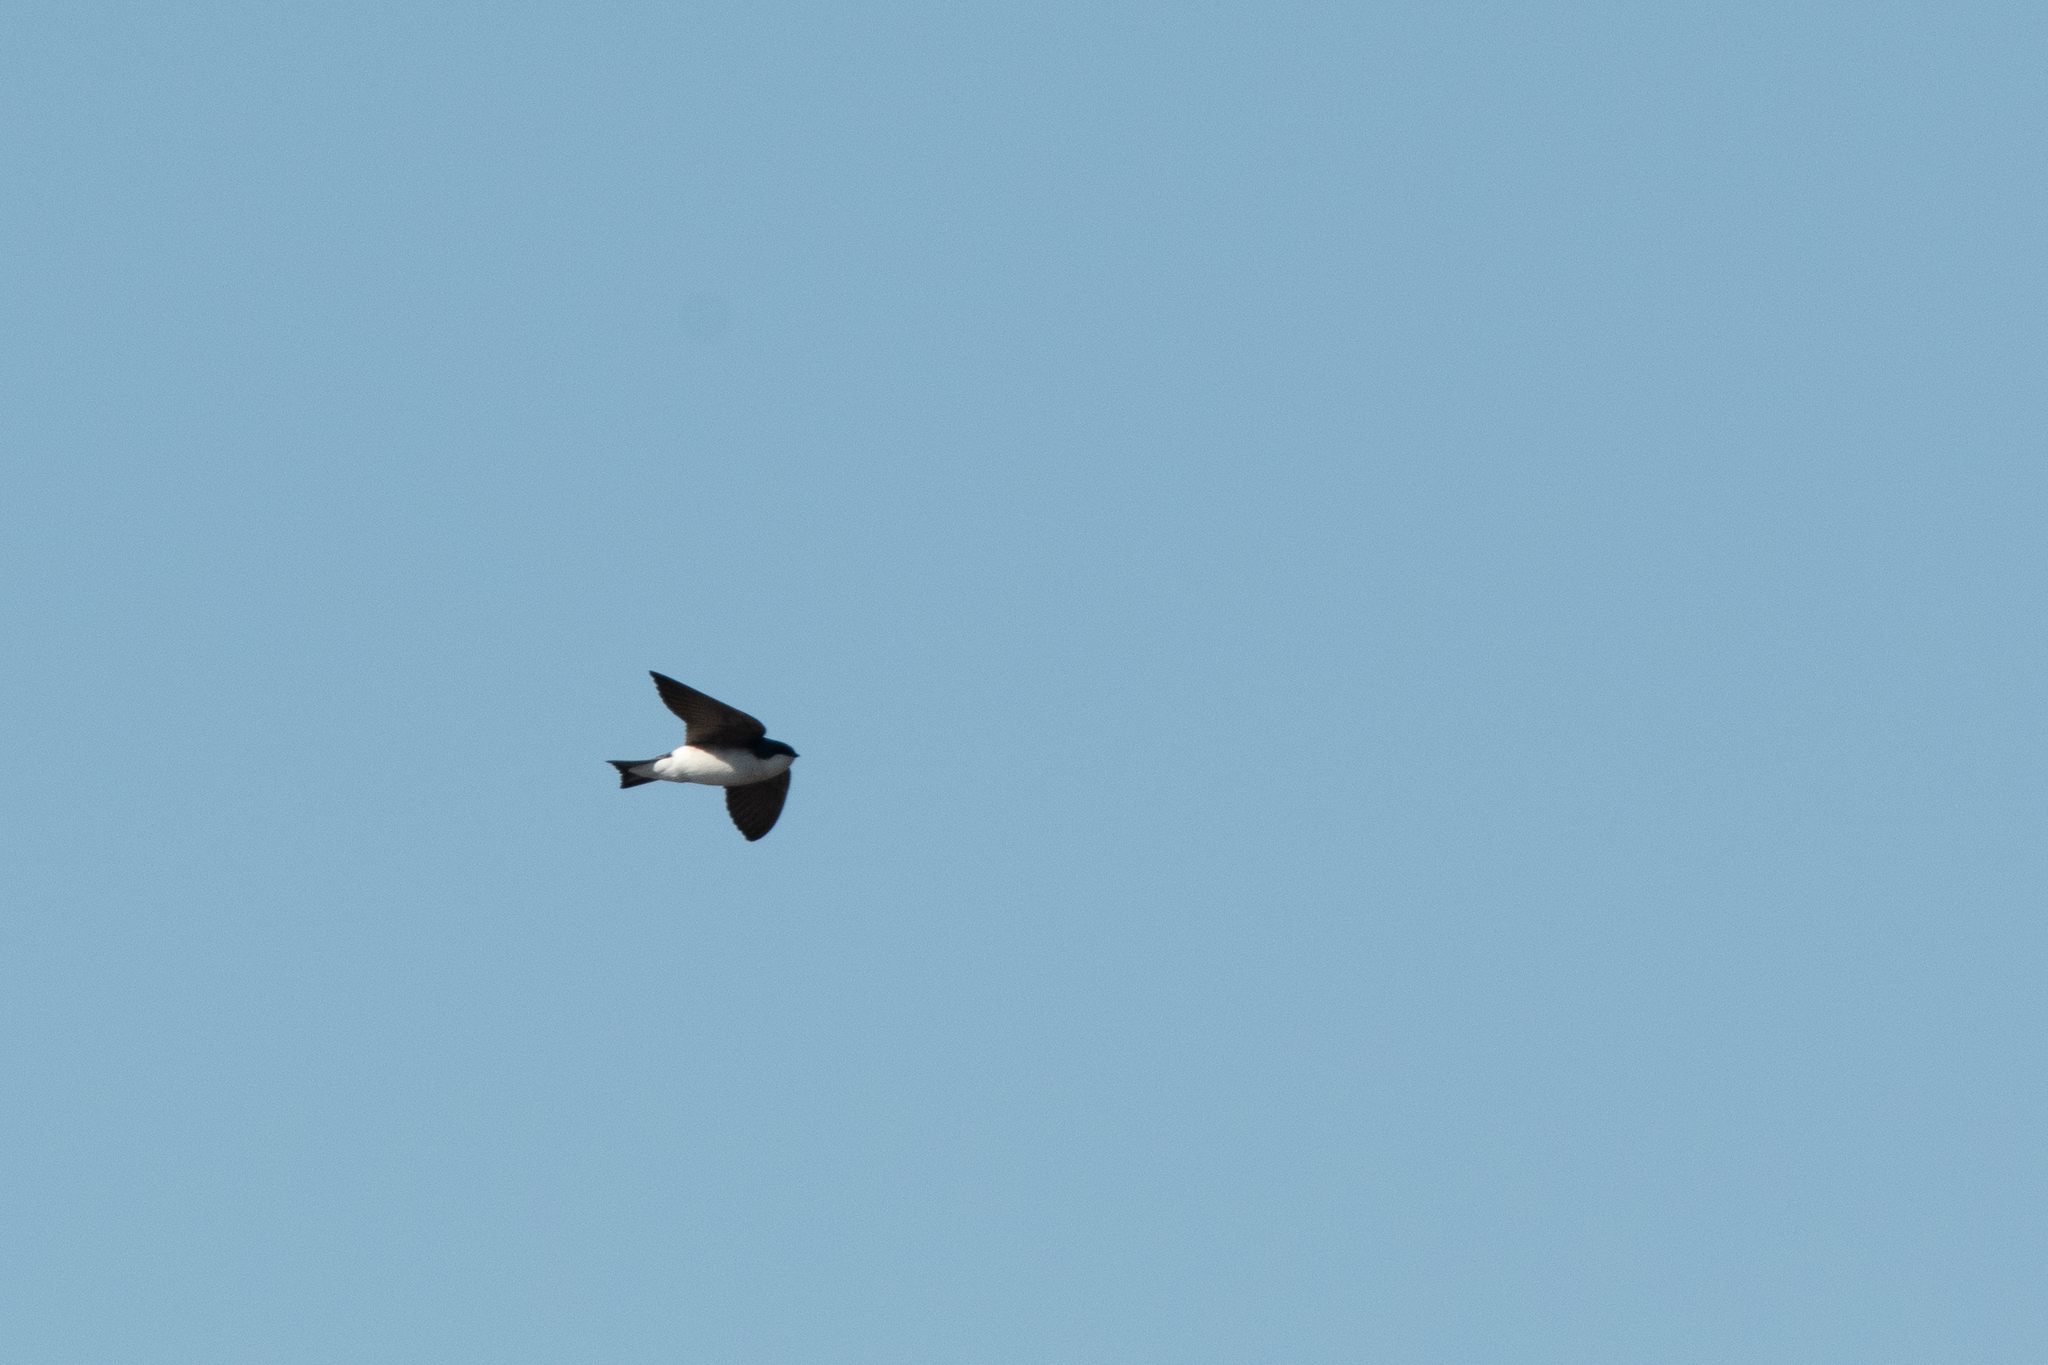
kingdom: Animalia
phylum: Chordata
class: Aves
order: Passeriformes
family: Hirundinidae
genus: Tachycineta
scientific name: Tachycineta bicolor
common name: Tree swallow
